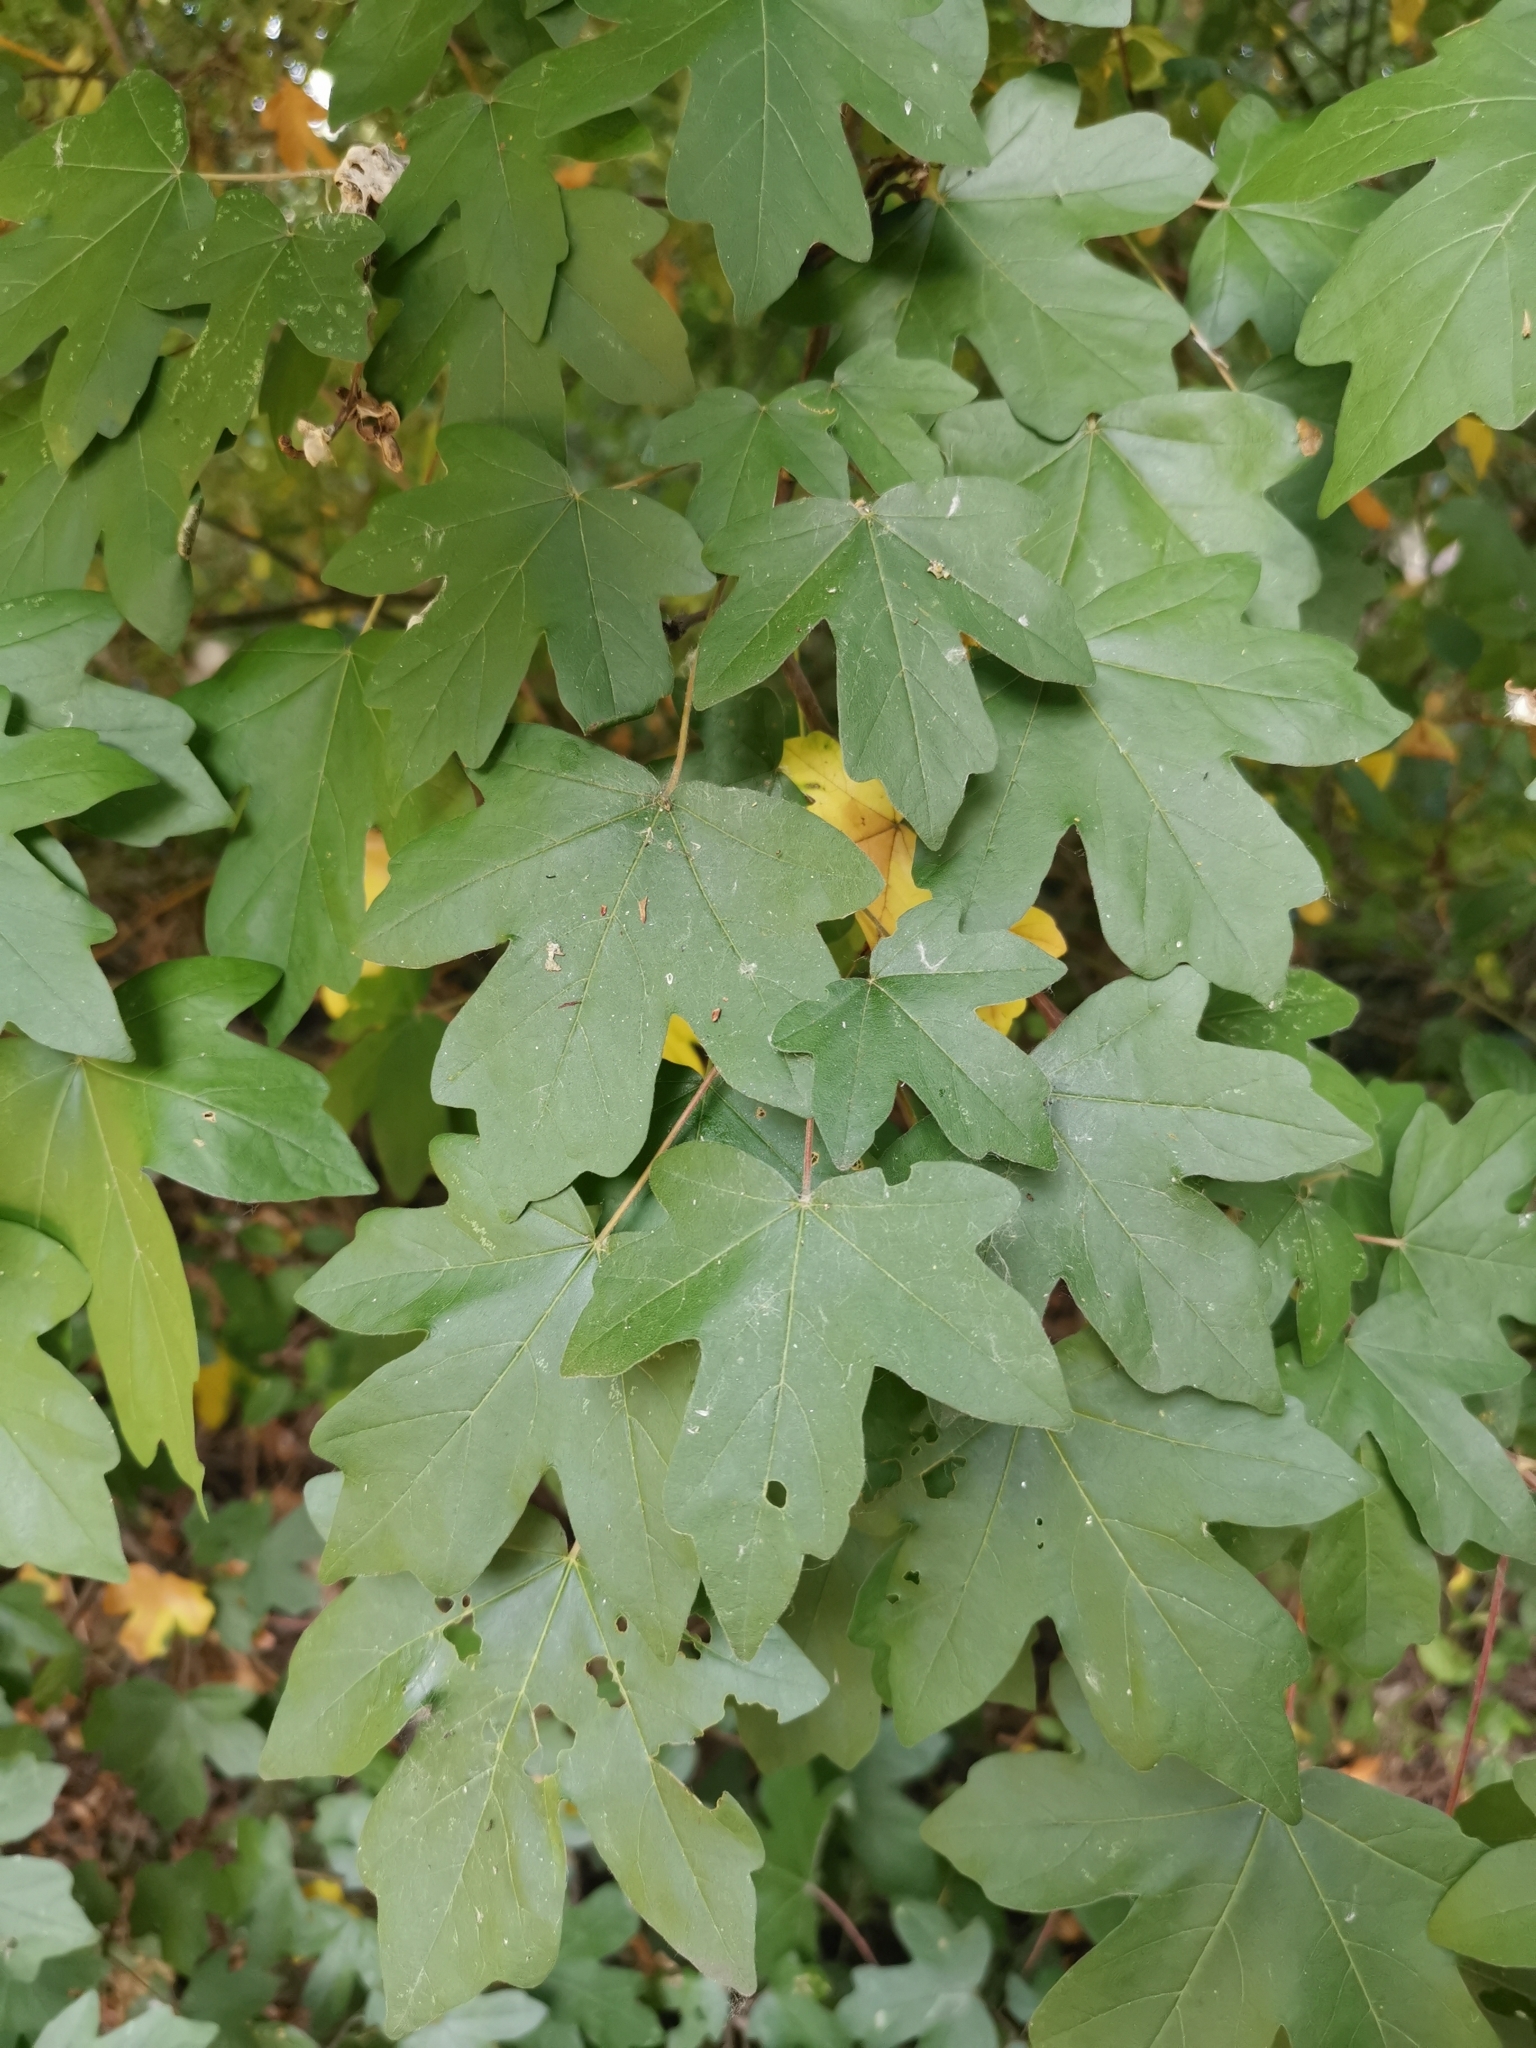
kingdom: Plantae
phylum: Tracheophyta
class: Magnoliopsida
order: Sapindales
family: Sapindaceae
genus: Acer
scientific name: Acer campestre
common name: Field maple
